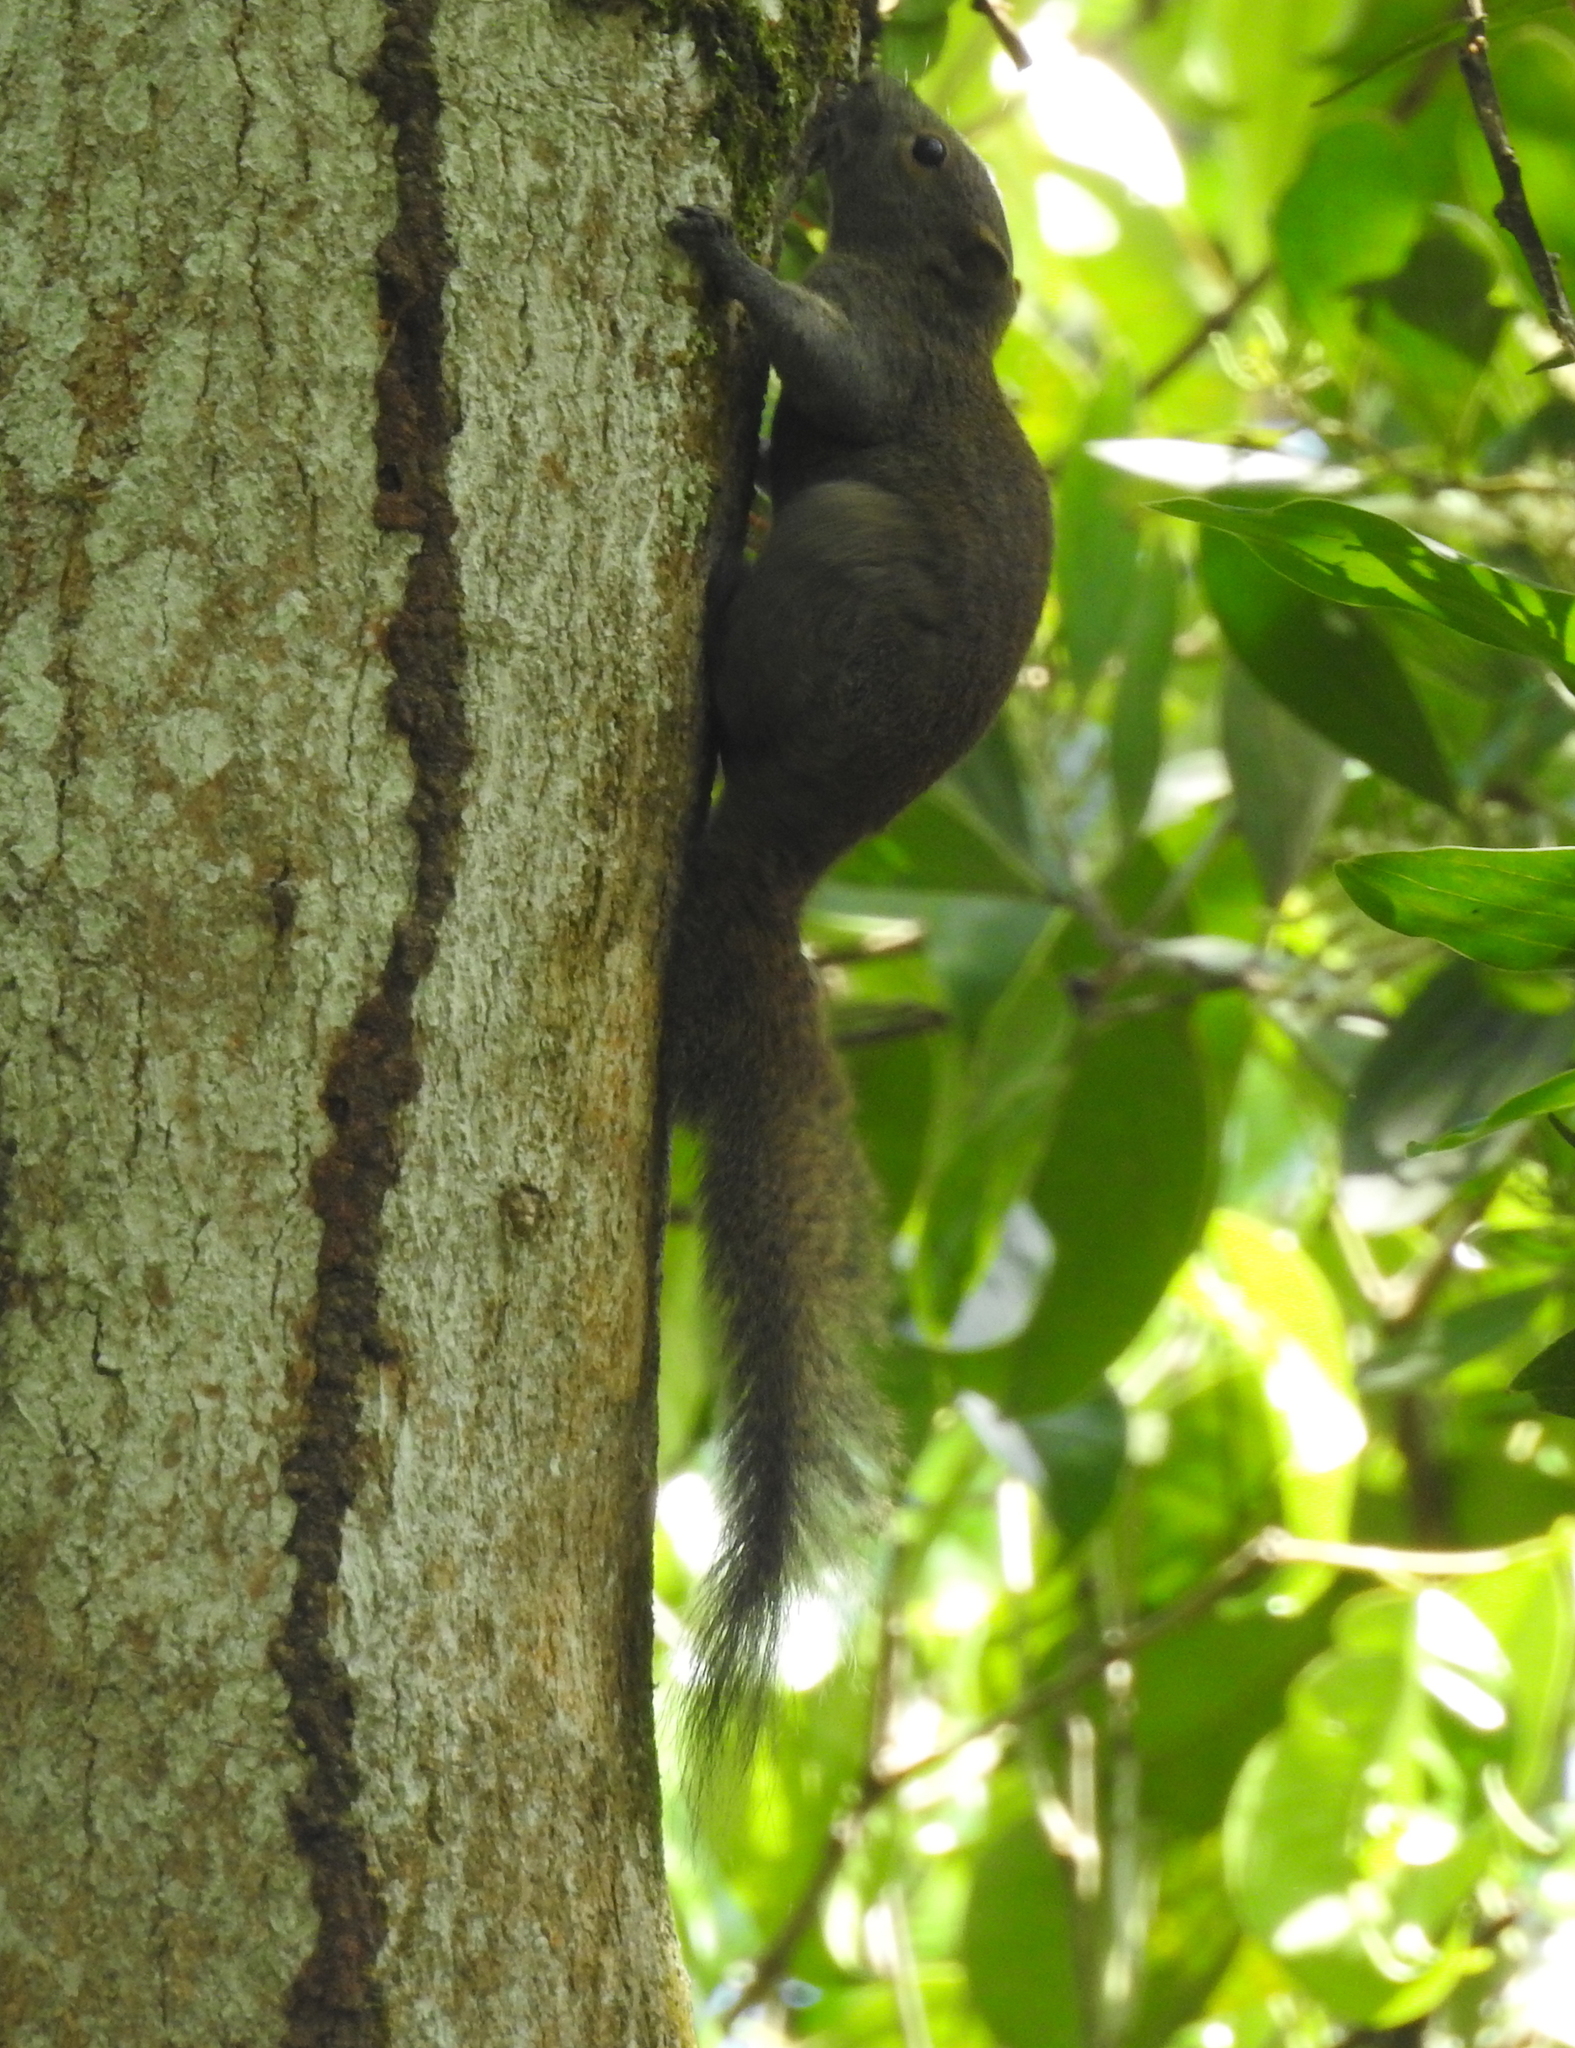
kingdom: Animalia
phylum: Chordata
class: Mammalia
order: Rodentia
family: Sciuridae
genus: Callosciurus
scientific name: Callosciurus caniceps
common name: Gray-bellied squirrel
